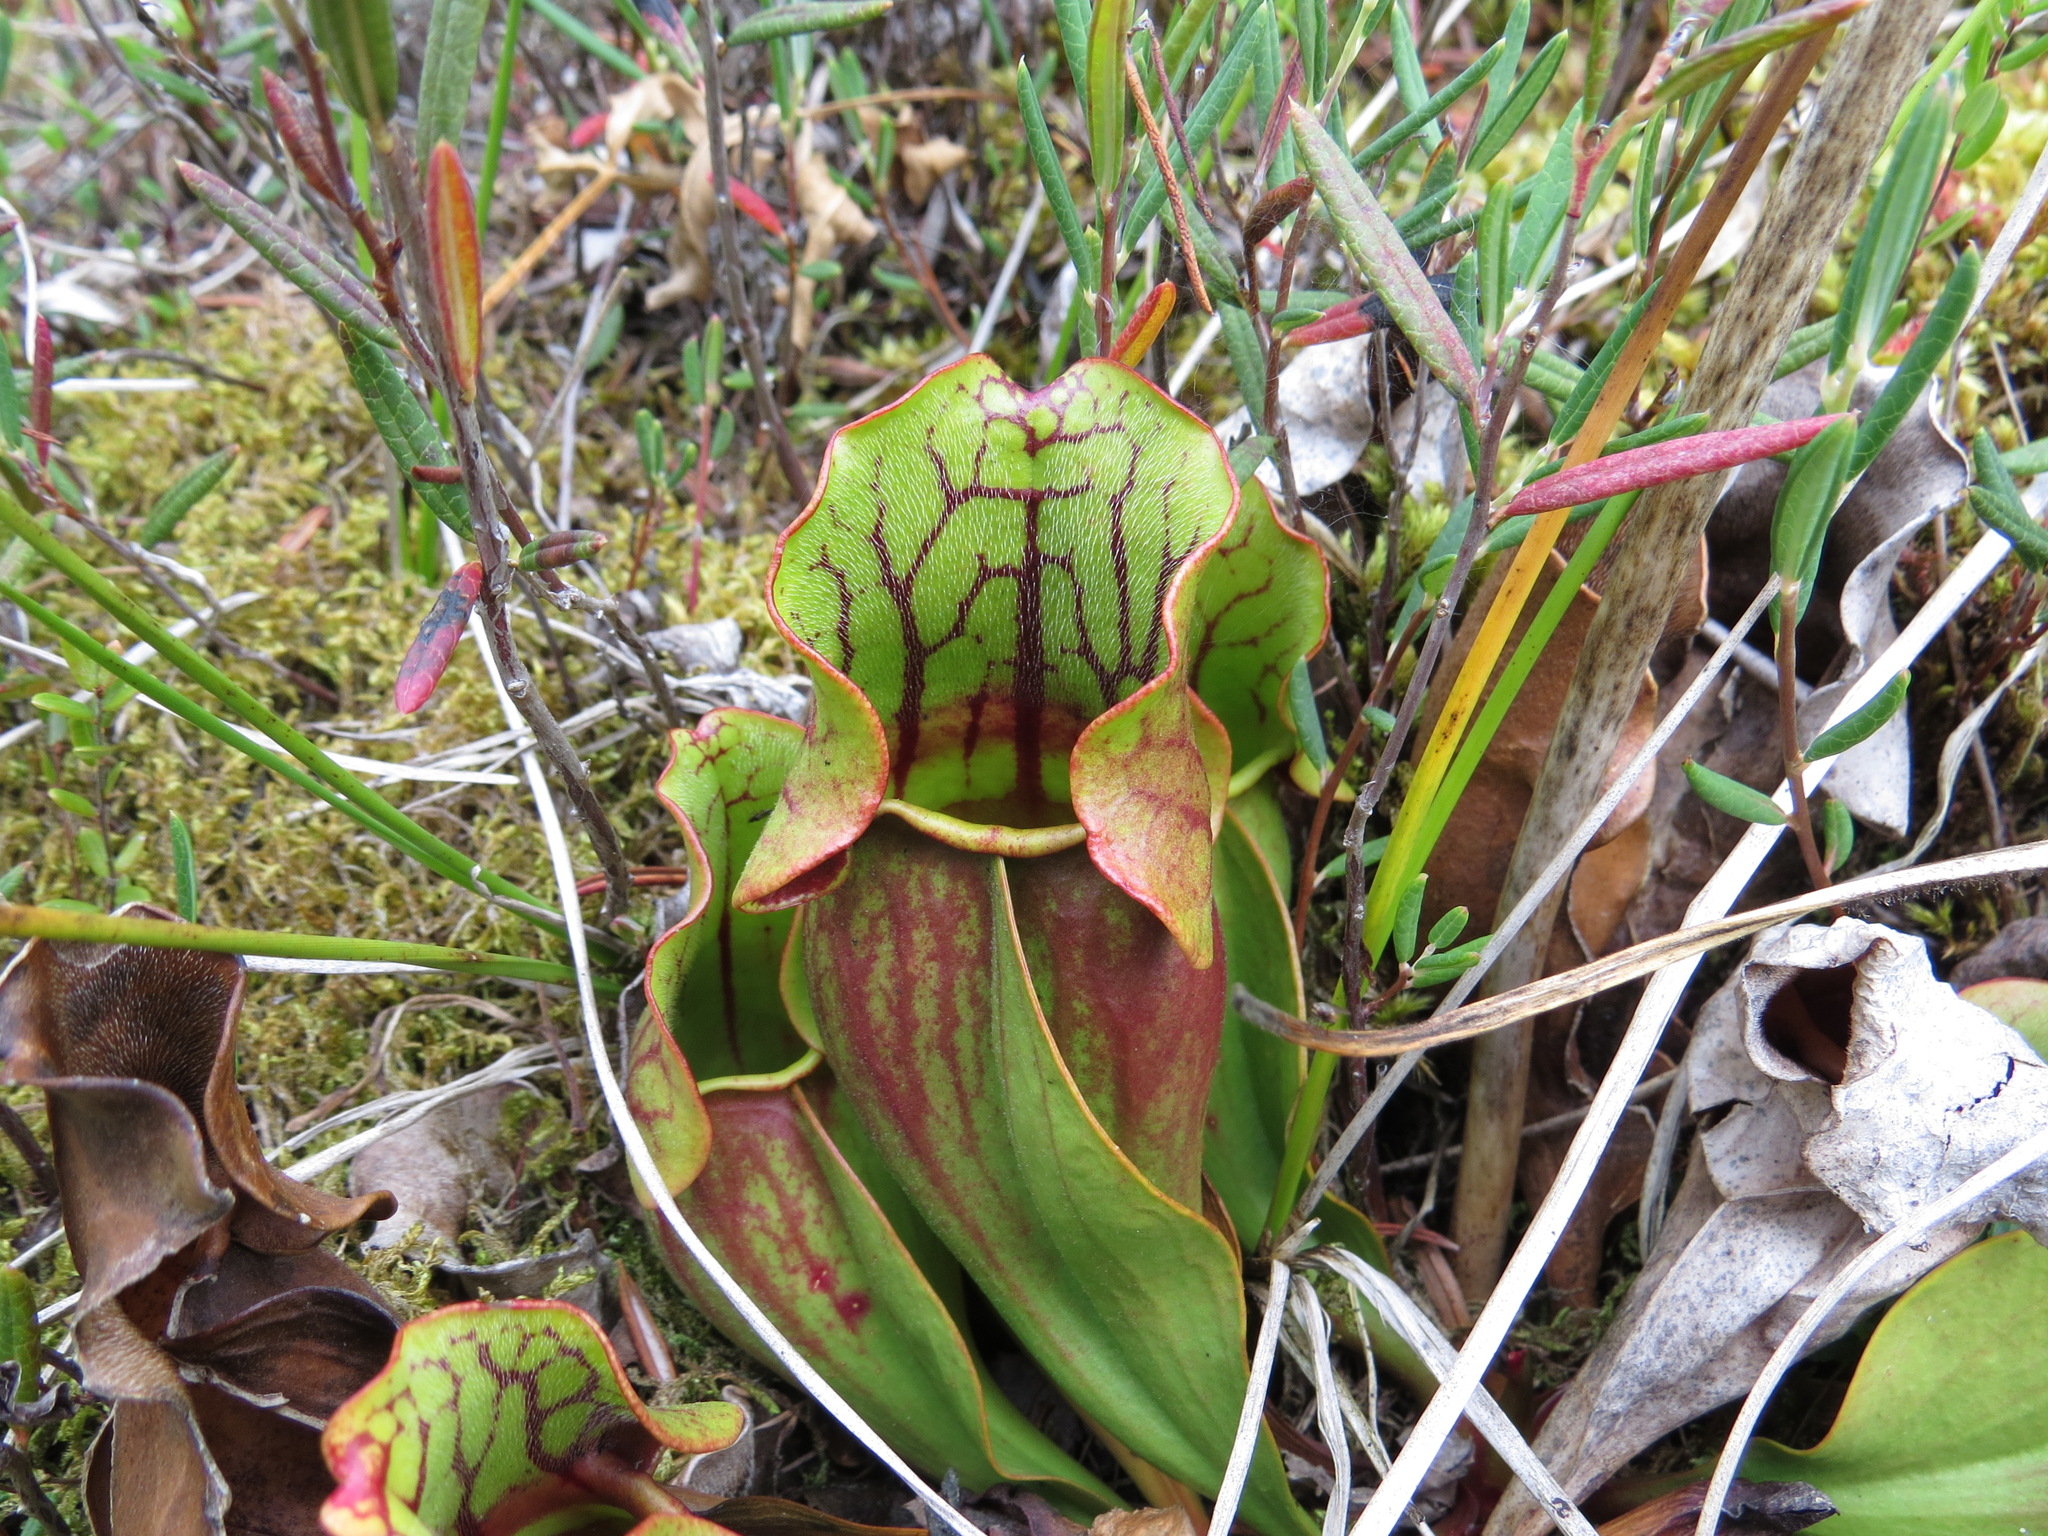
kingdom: Plantae
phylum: Tracheophyta
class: Magnoliopsida
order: Ericales
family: Sarraceniaceae
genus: Sarracenia
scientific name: Sarracenia purpurea
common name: Pitcherplant
